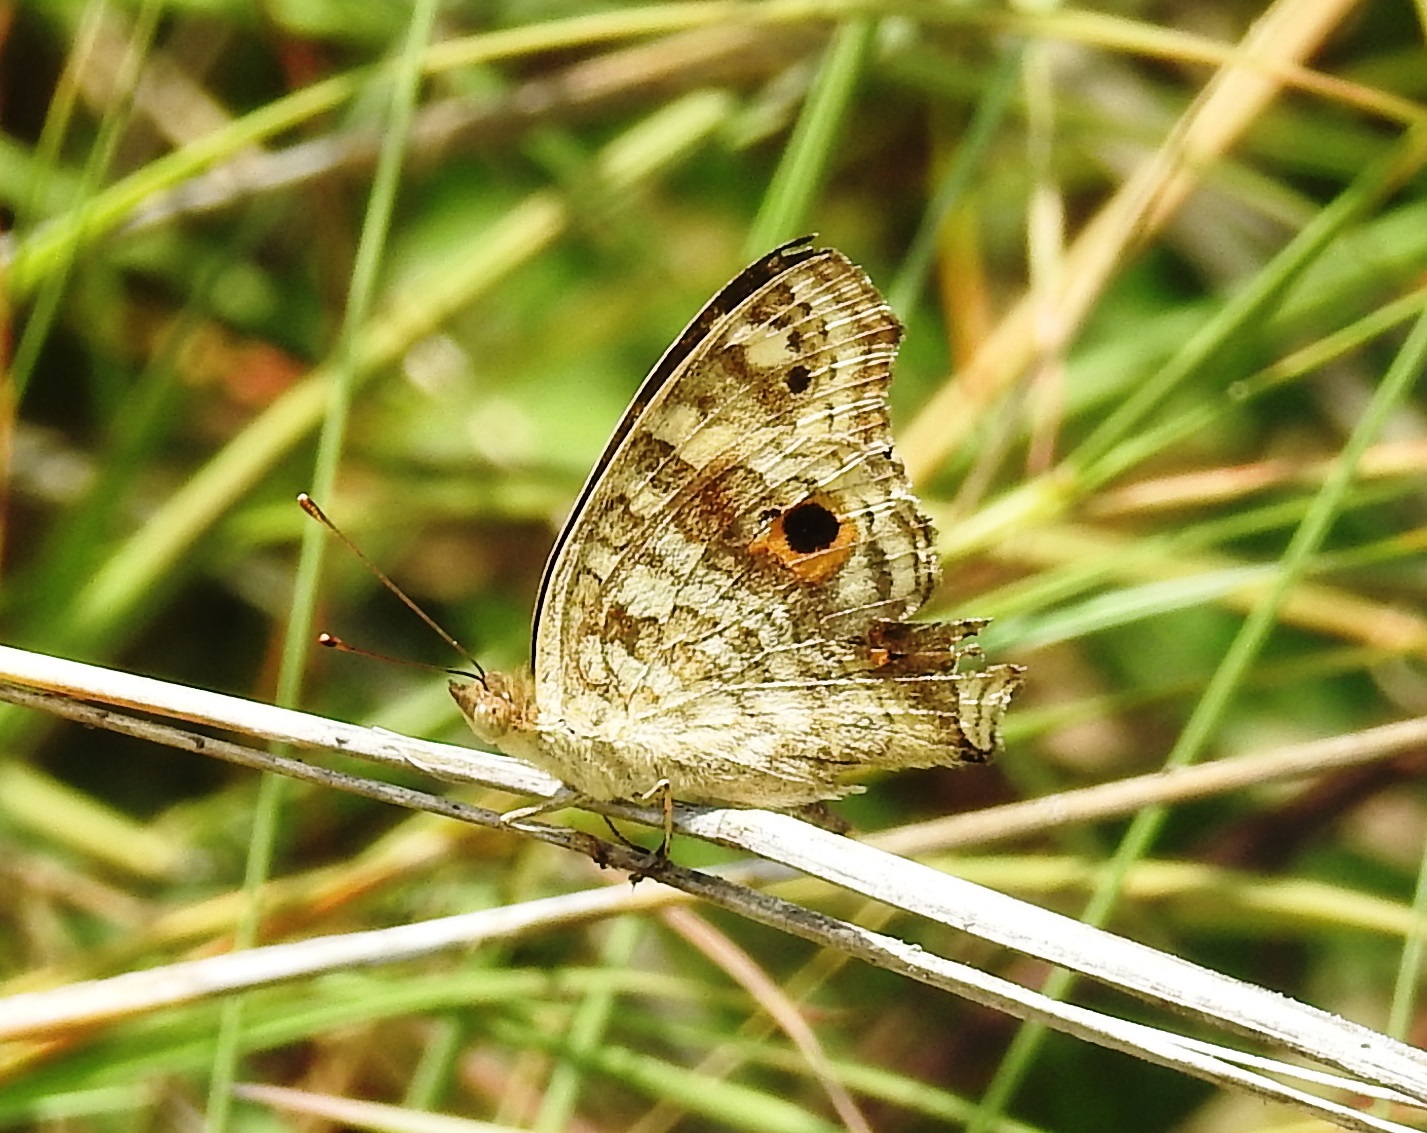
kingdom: Animalia
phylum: Arthropoda
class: Insecta
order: Lepidoptera
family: Nymphalidae
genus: Junonia
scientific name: Junonia lemonias
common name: Lemon pansy
